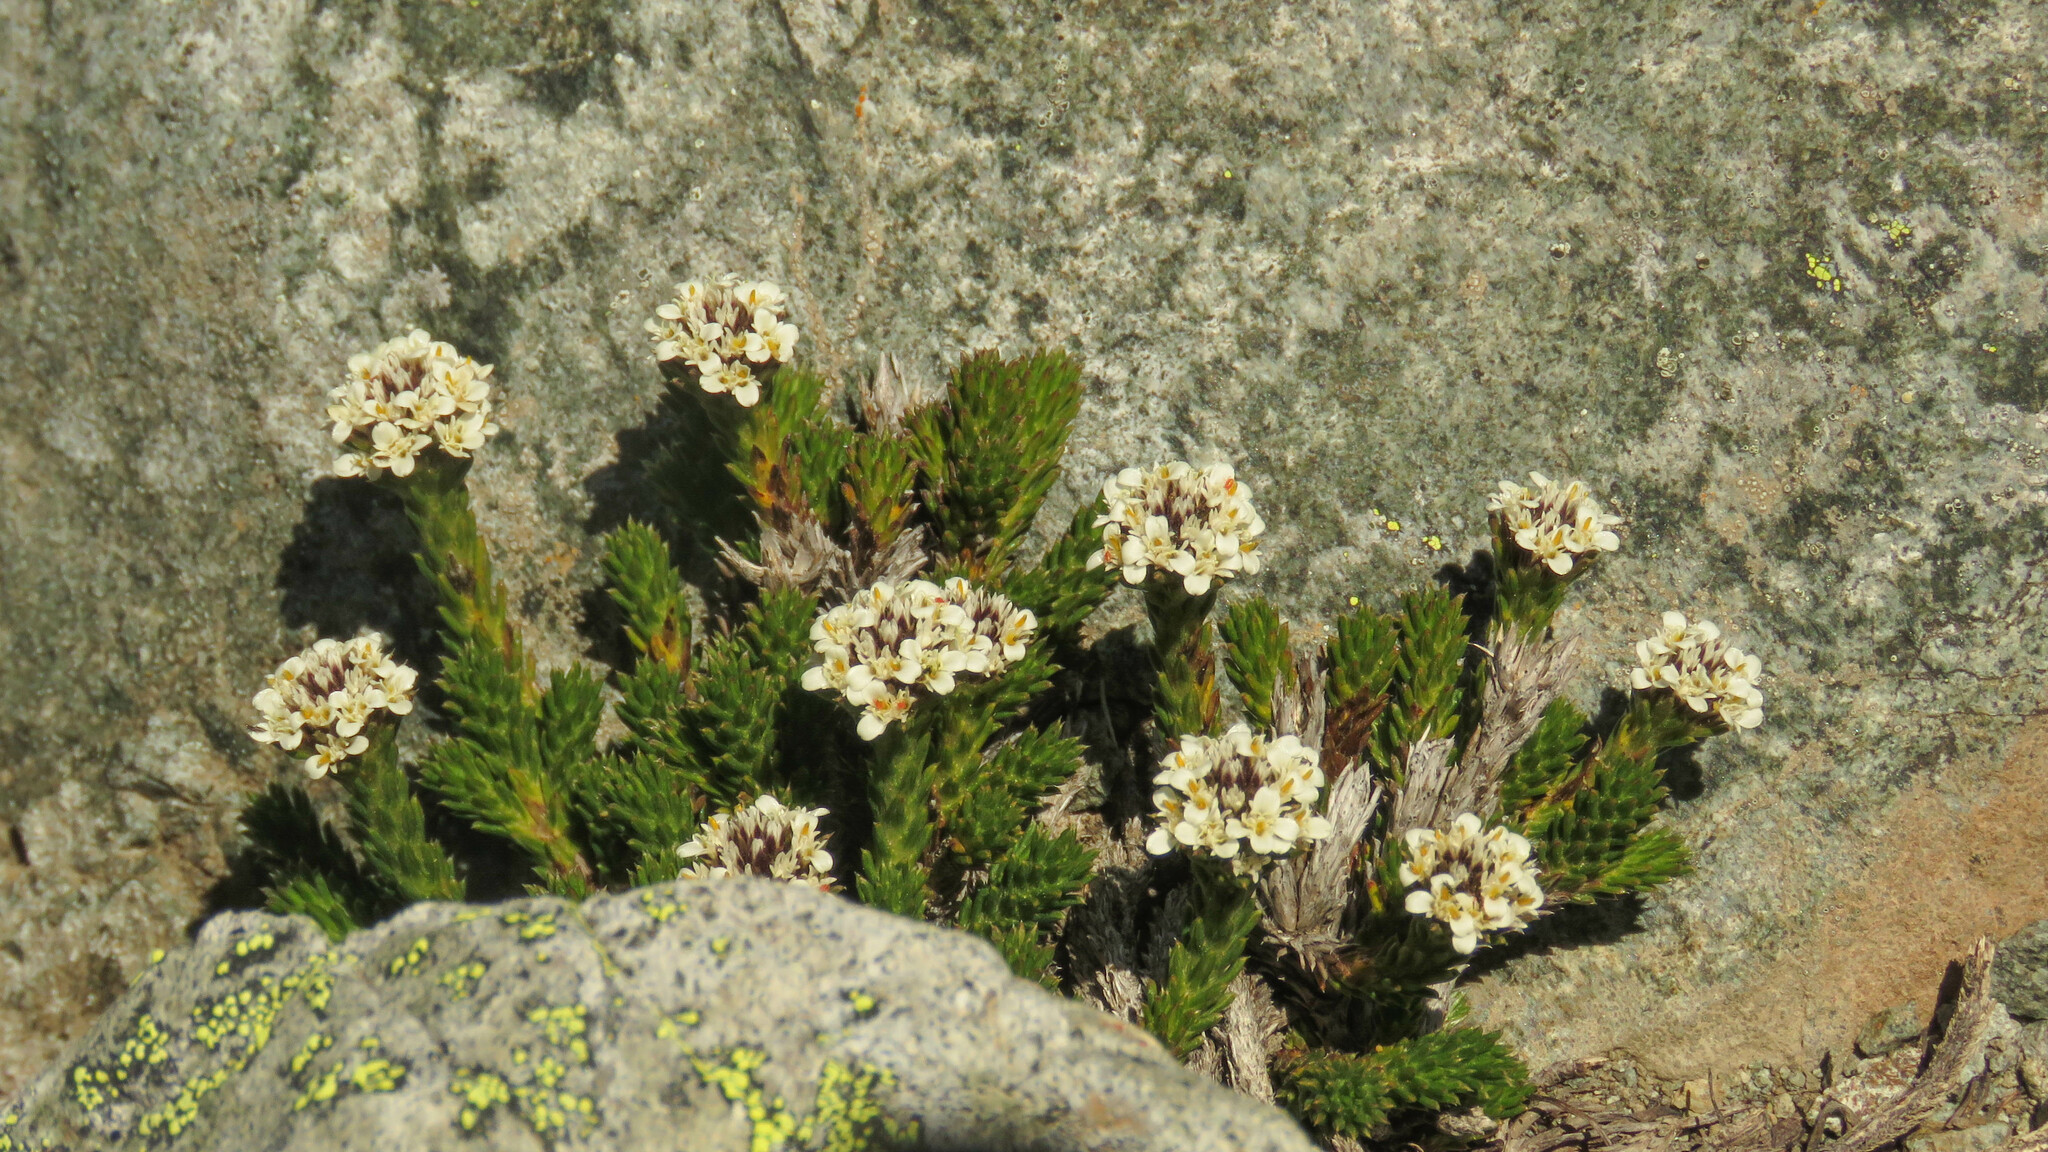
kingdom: Plantae
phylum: Tracheophyta
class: Magnoliopsida
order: Asterales
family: Asteraceae
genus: Nassauvia
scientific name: Nassauvia pygmaea
